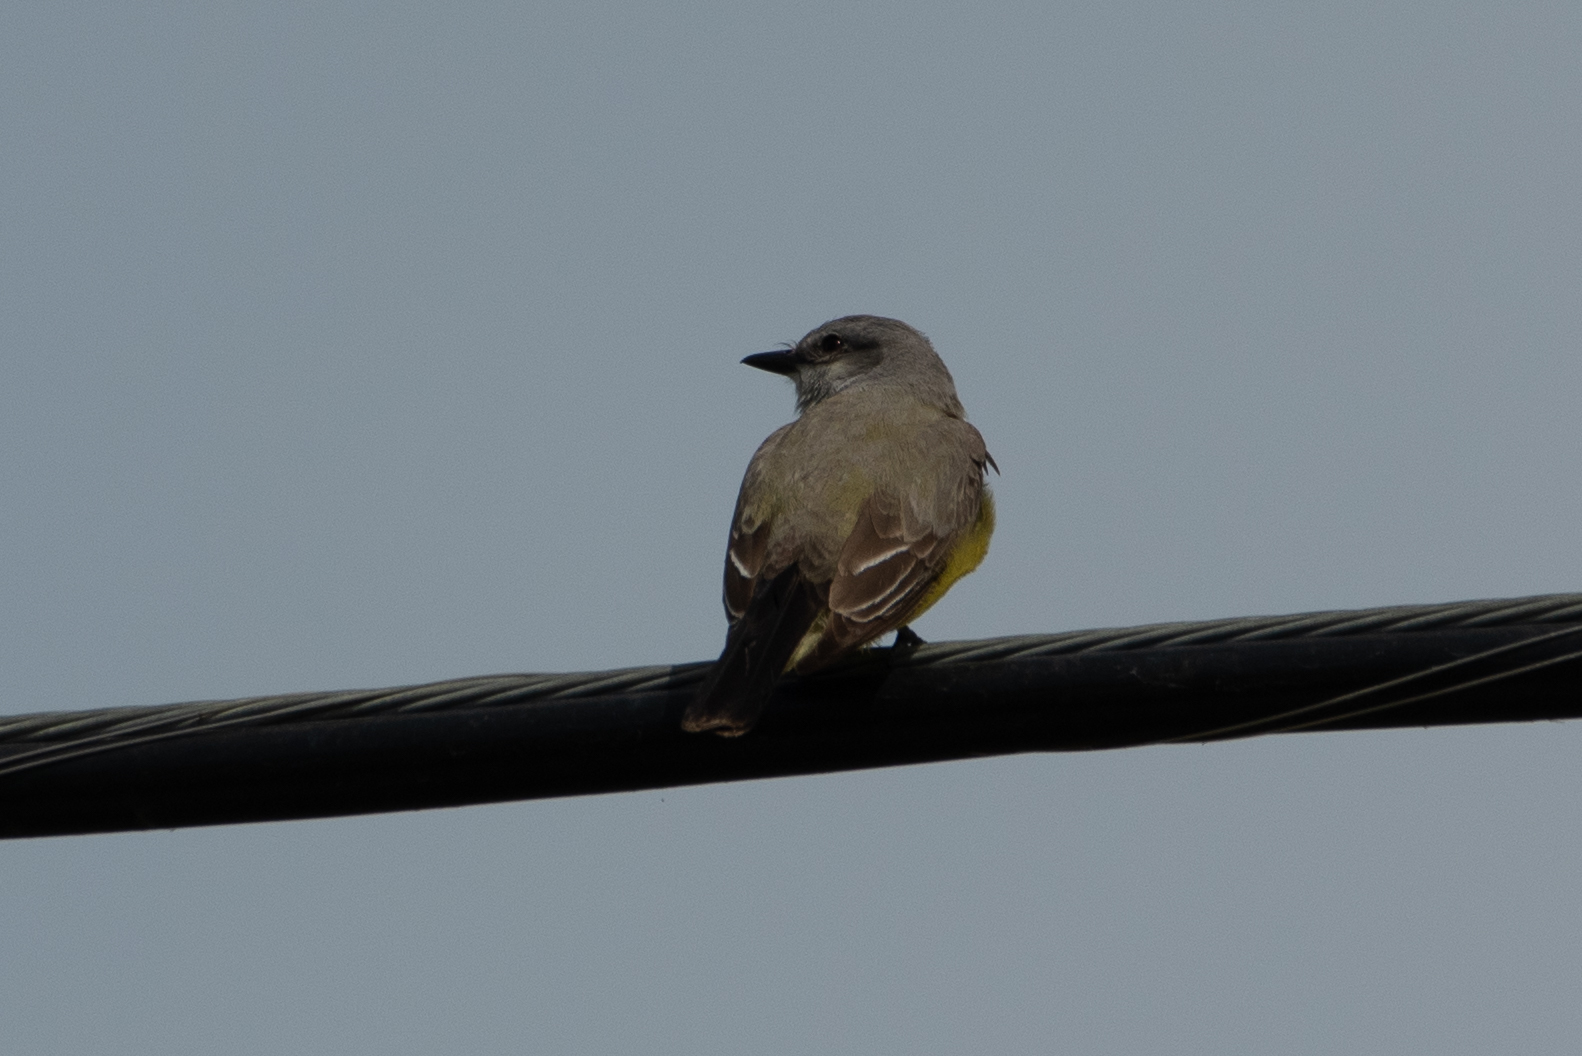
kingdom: Animalia
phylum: Chordata
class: Aves
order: Passeriformes
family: Tyrannidae
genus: Tyrannus
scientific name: Tyrannus verticalis
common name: Western kingbird
